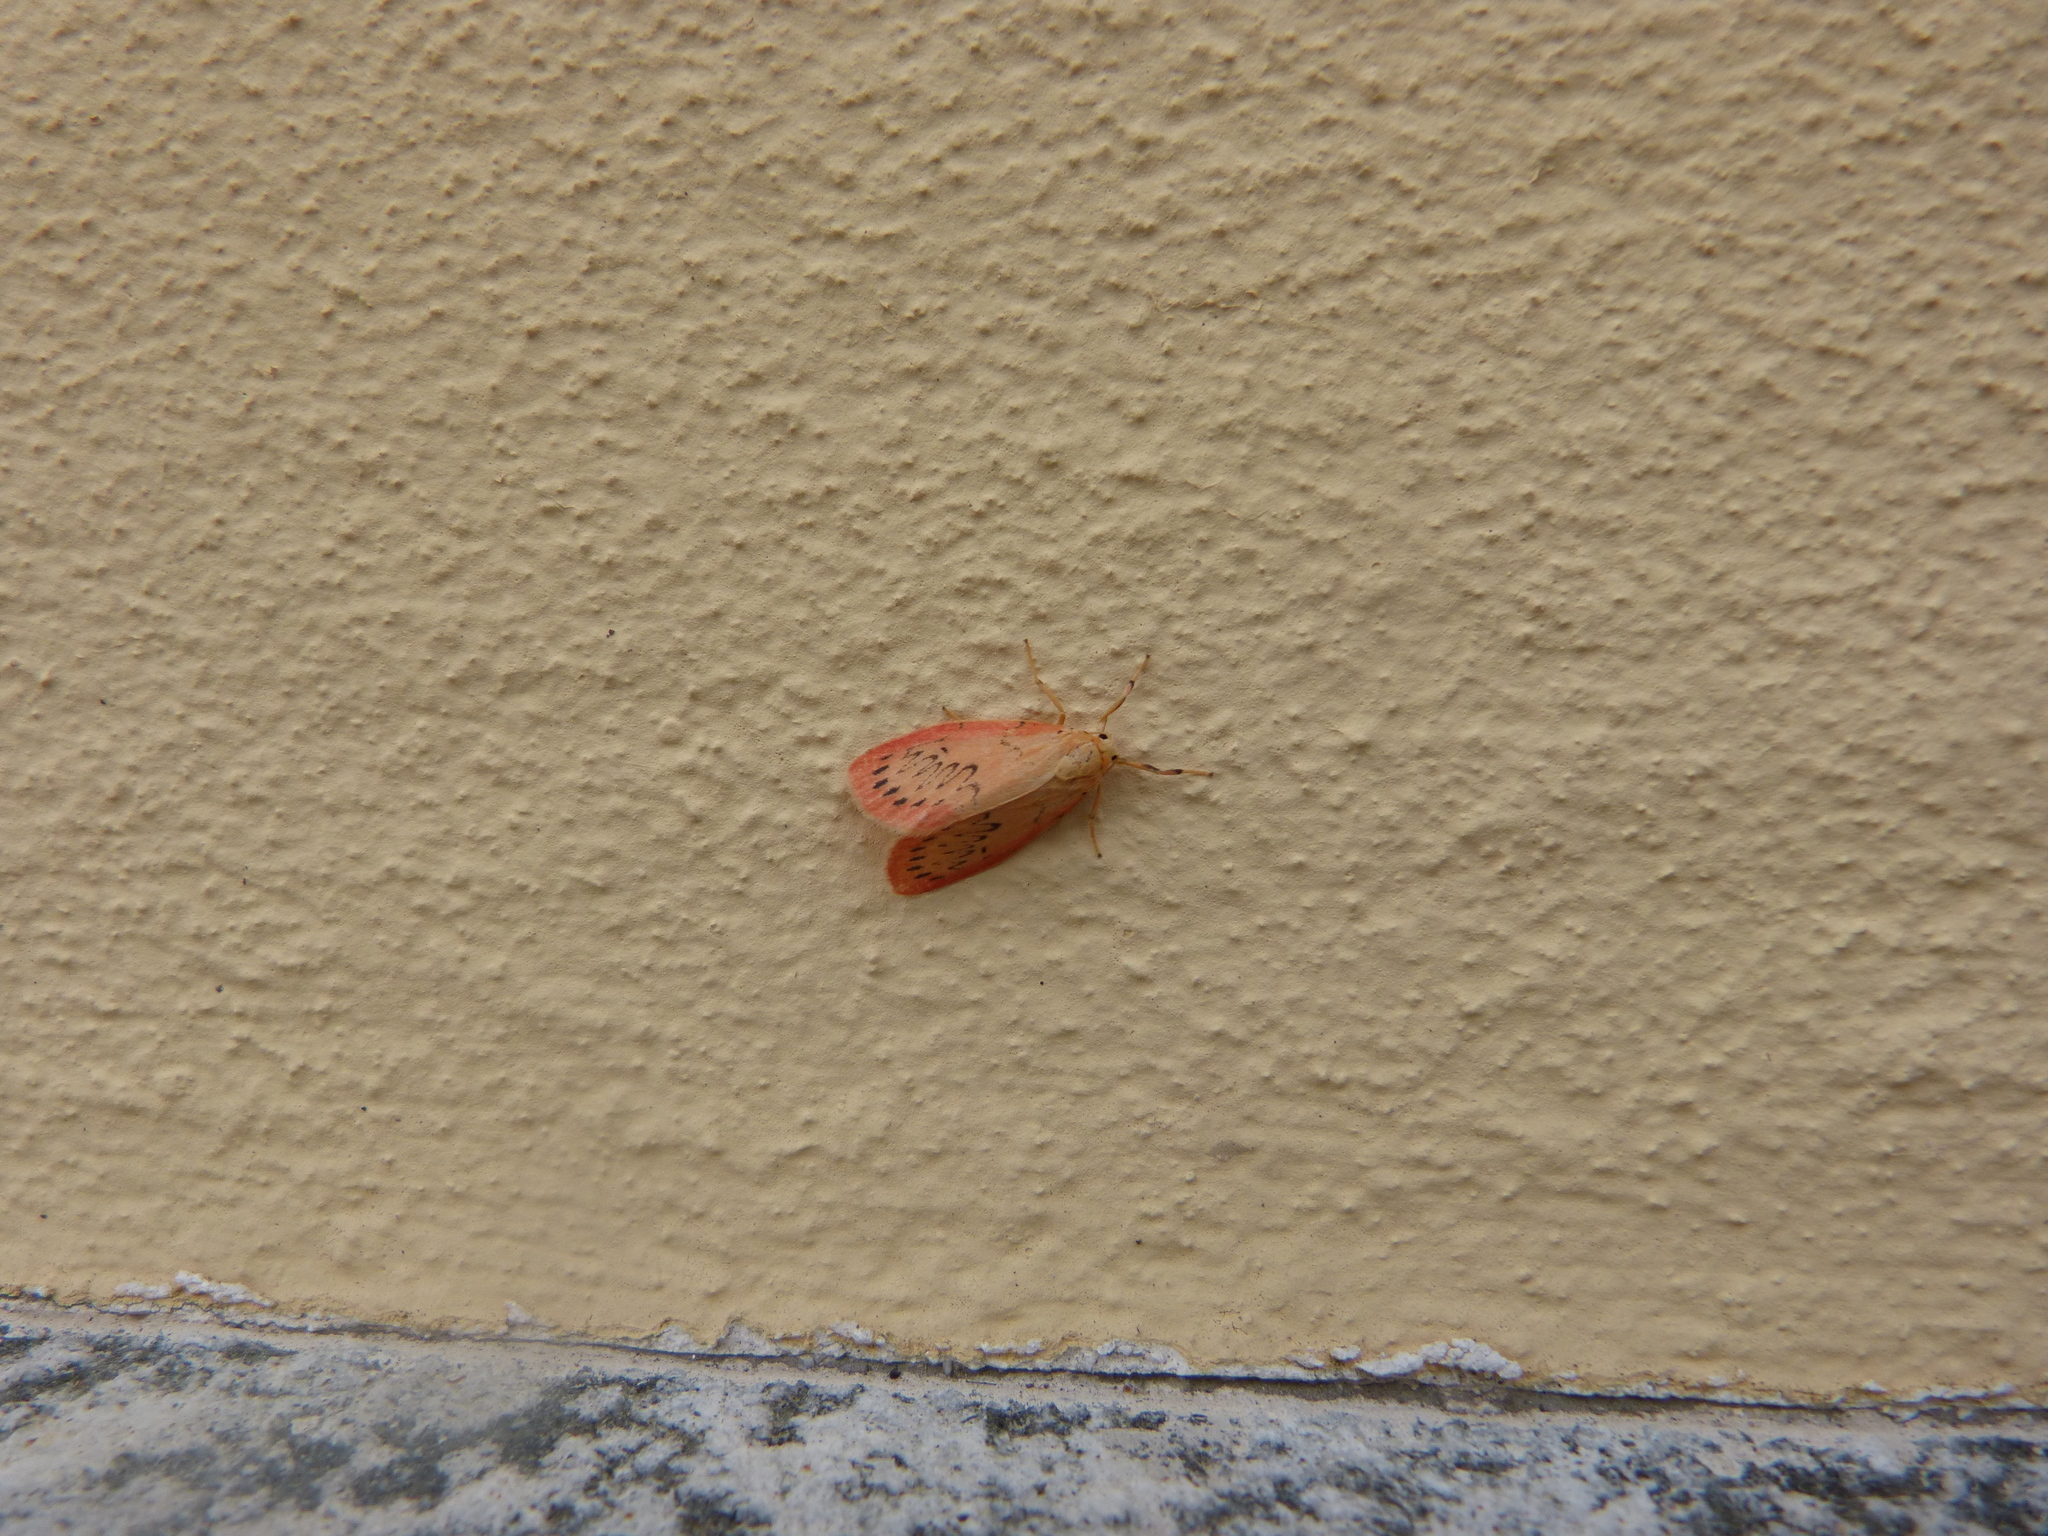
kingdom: Animalia
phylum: Arthropoda
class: Insecta
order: Lepidoptera
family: Erebidae
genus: Miltochrista
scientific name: Miltochrista miniata
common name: Rosy footman
